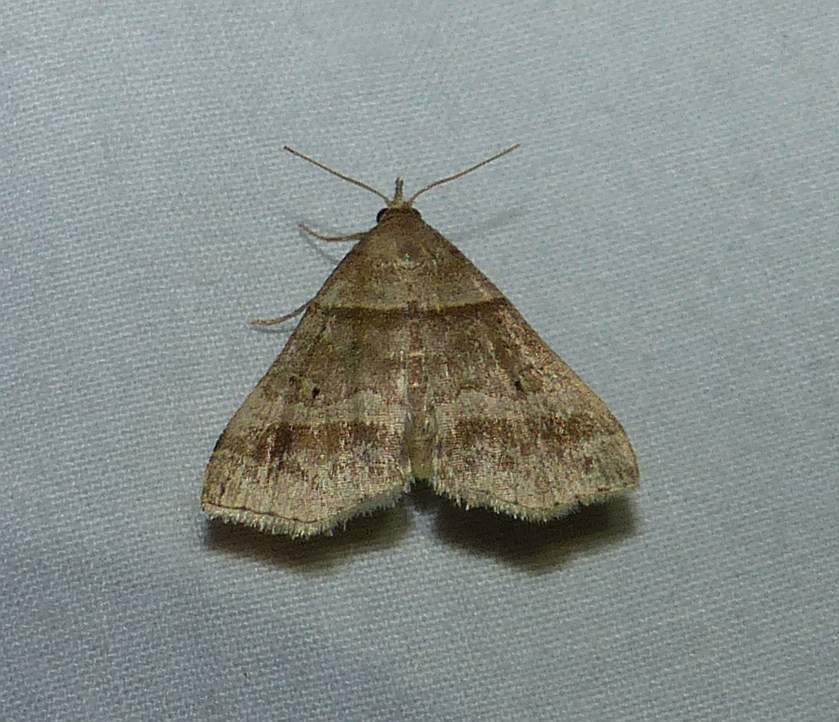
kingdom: Animalia
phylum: Arthropoda
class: Insecta
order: Lepidoptera
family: Erebidae
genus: Phaeolita
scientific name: Phaeolita pyramusalis
